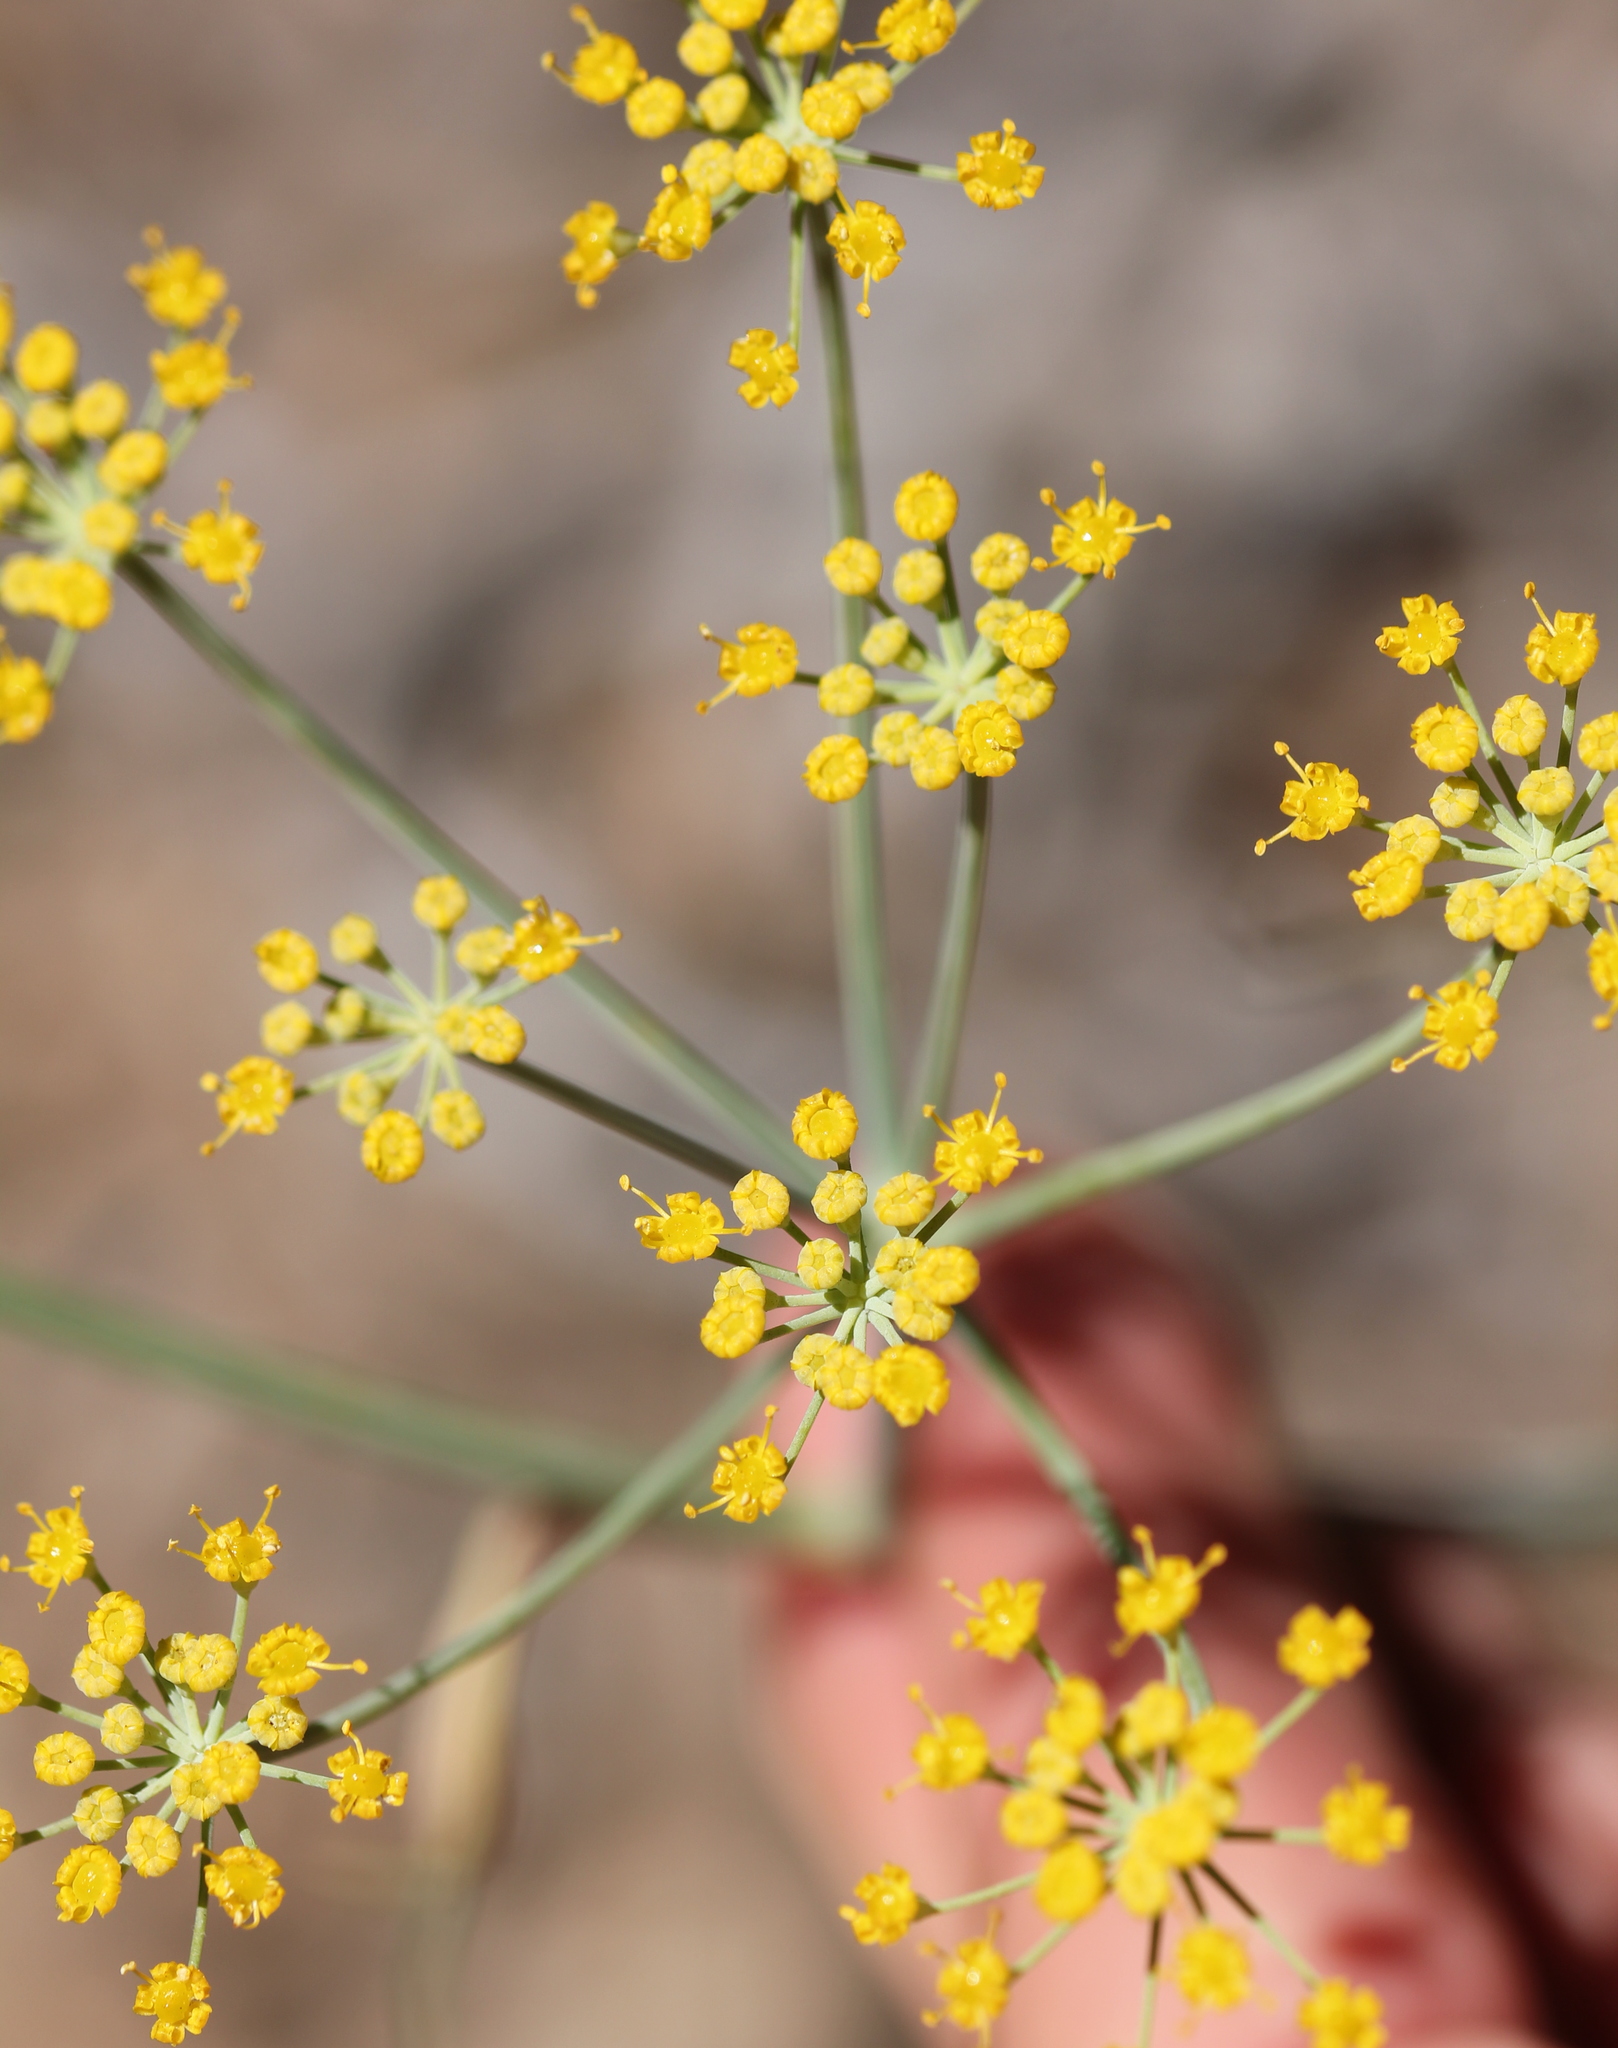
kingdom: Plantae
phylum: Tracheophyta
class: Magnoliopsida
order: Apiales
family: Apiaceae
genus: Foeniculum
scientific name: Foeniculum vulgare
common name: Fennel
